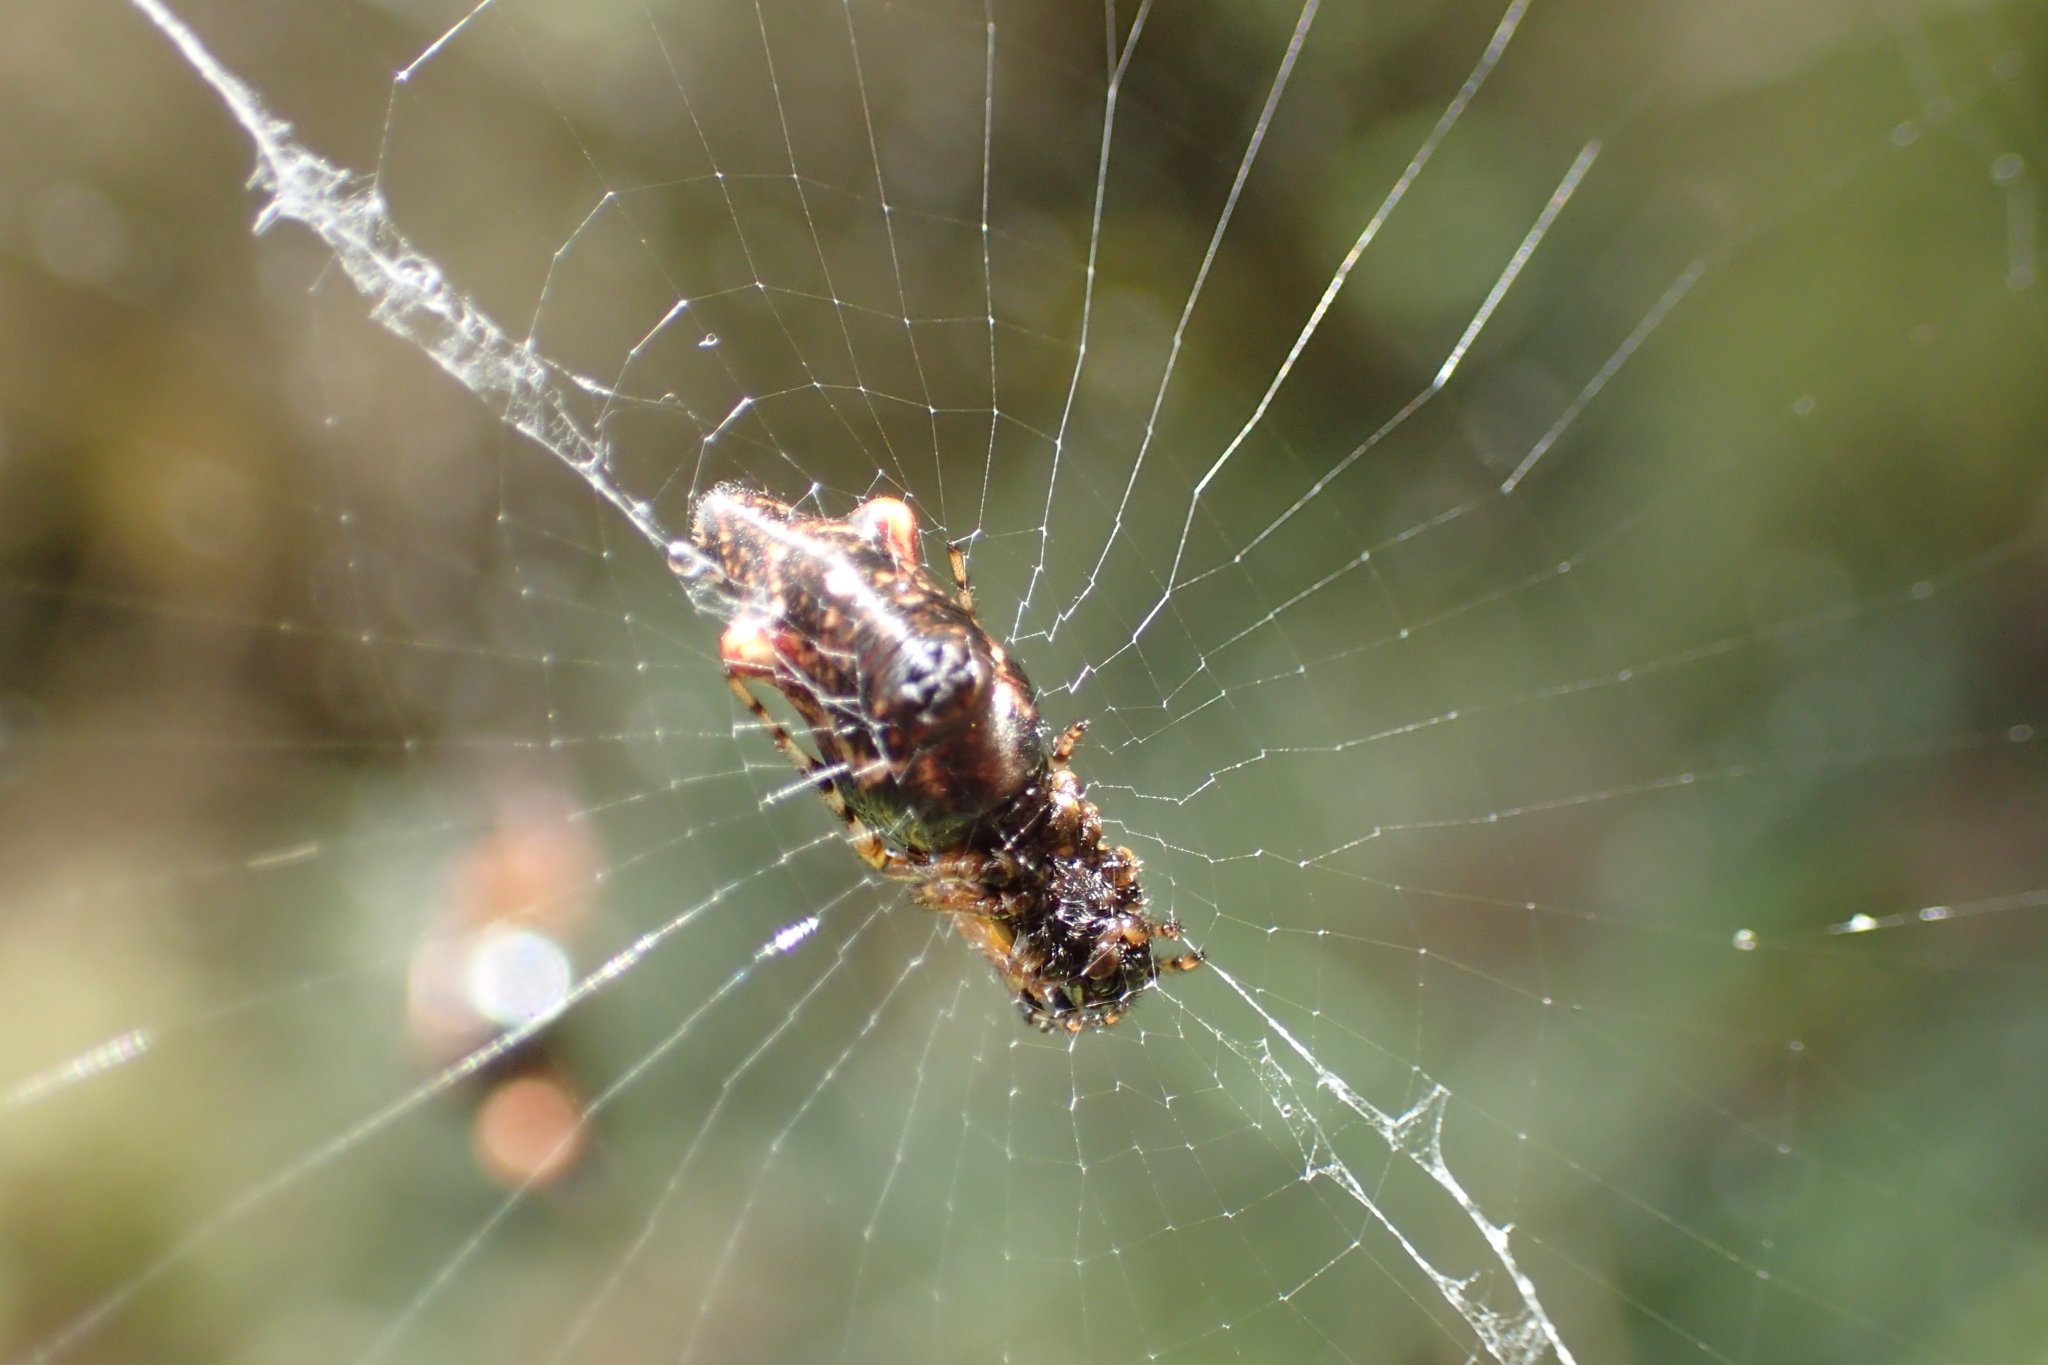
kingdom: Animalia
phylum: Arthropoda
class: Arachnida
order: Araneae
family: Araneidae
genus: Cyclosa
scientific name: Cyclosa trilobata
